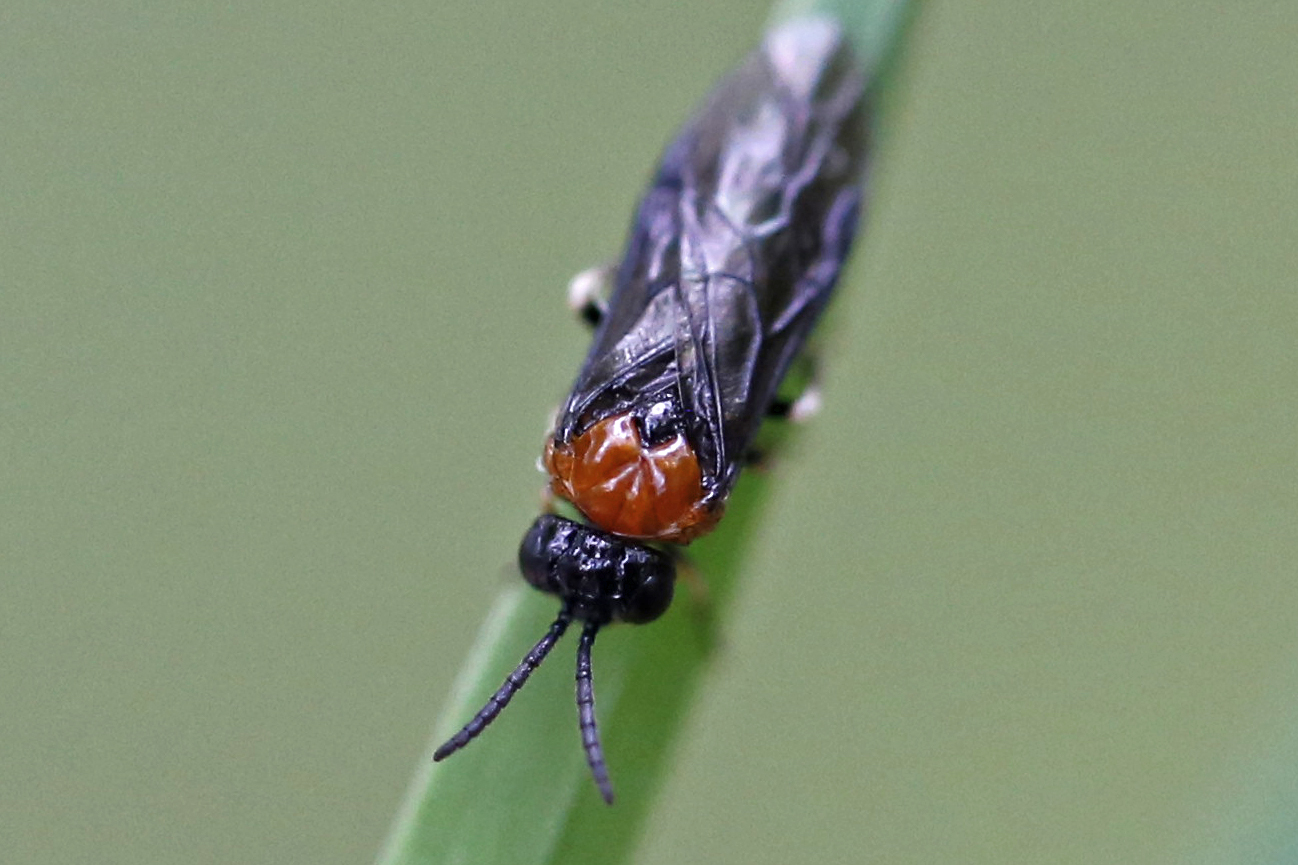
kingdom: Animalia
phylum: Arthropoda
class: Insecta
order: Hymenoptera
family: Tenthredinidae
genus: Eutomostethus
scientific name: Eutomostethus ephippium
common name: Tenthredid wasp
